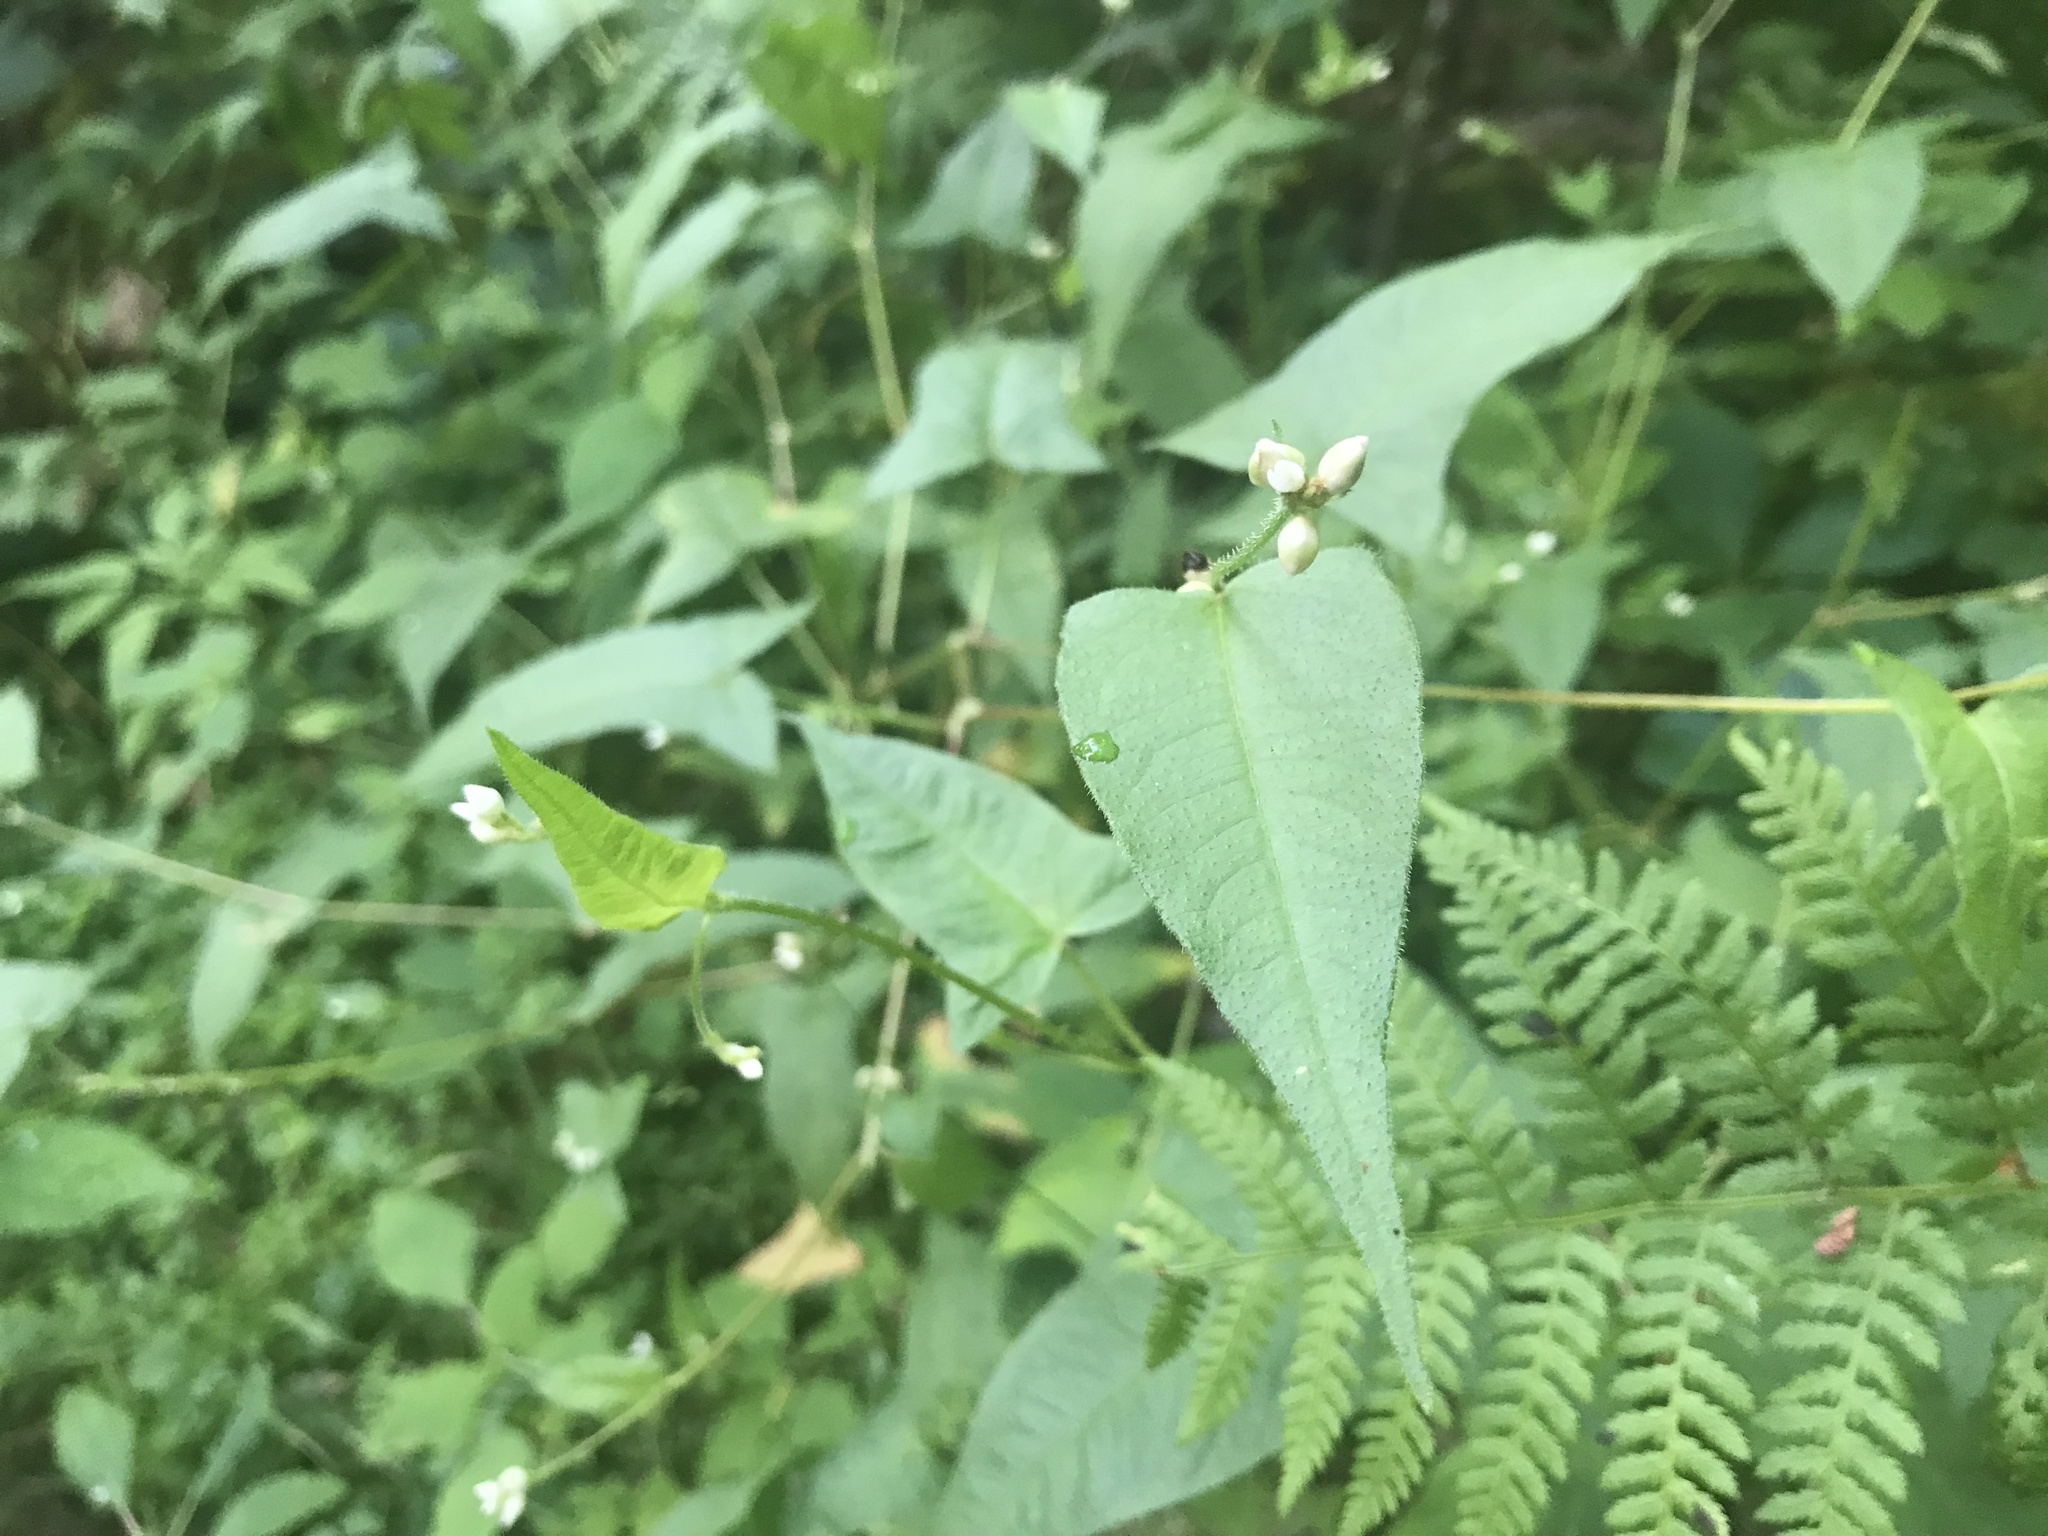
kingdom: Plantae
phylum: Tracheophyta
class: Magnoliopsida
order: Caryophyllales
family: Polygonaceae
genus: Persicaria
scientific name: Persicaria arifolia
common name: Halberd-leaved tear-thumb
